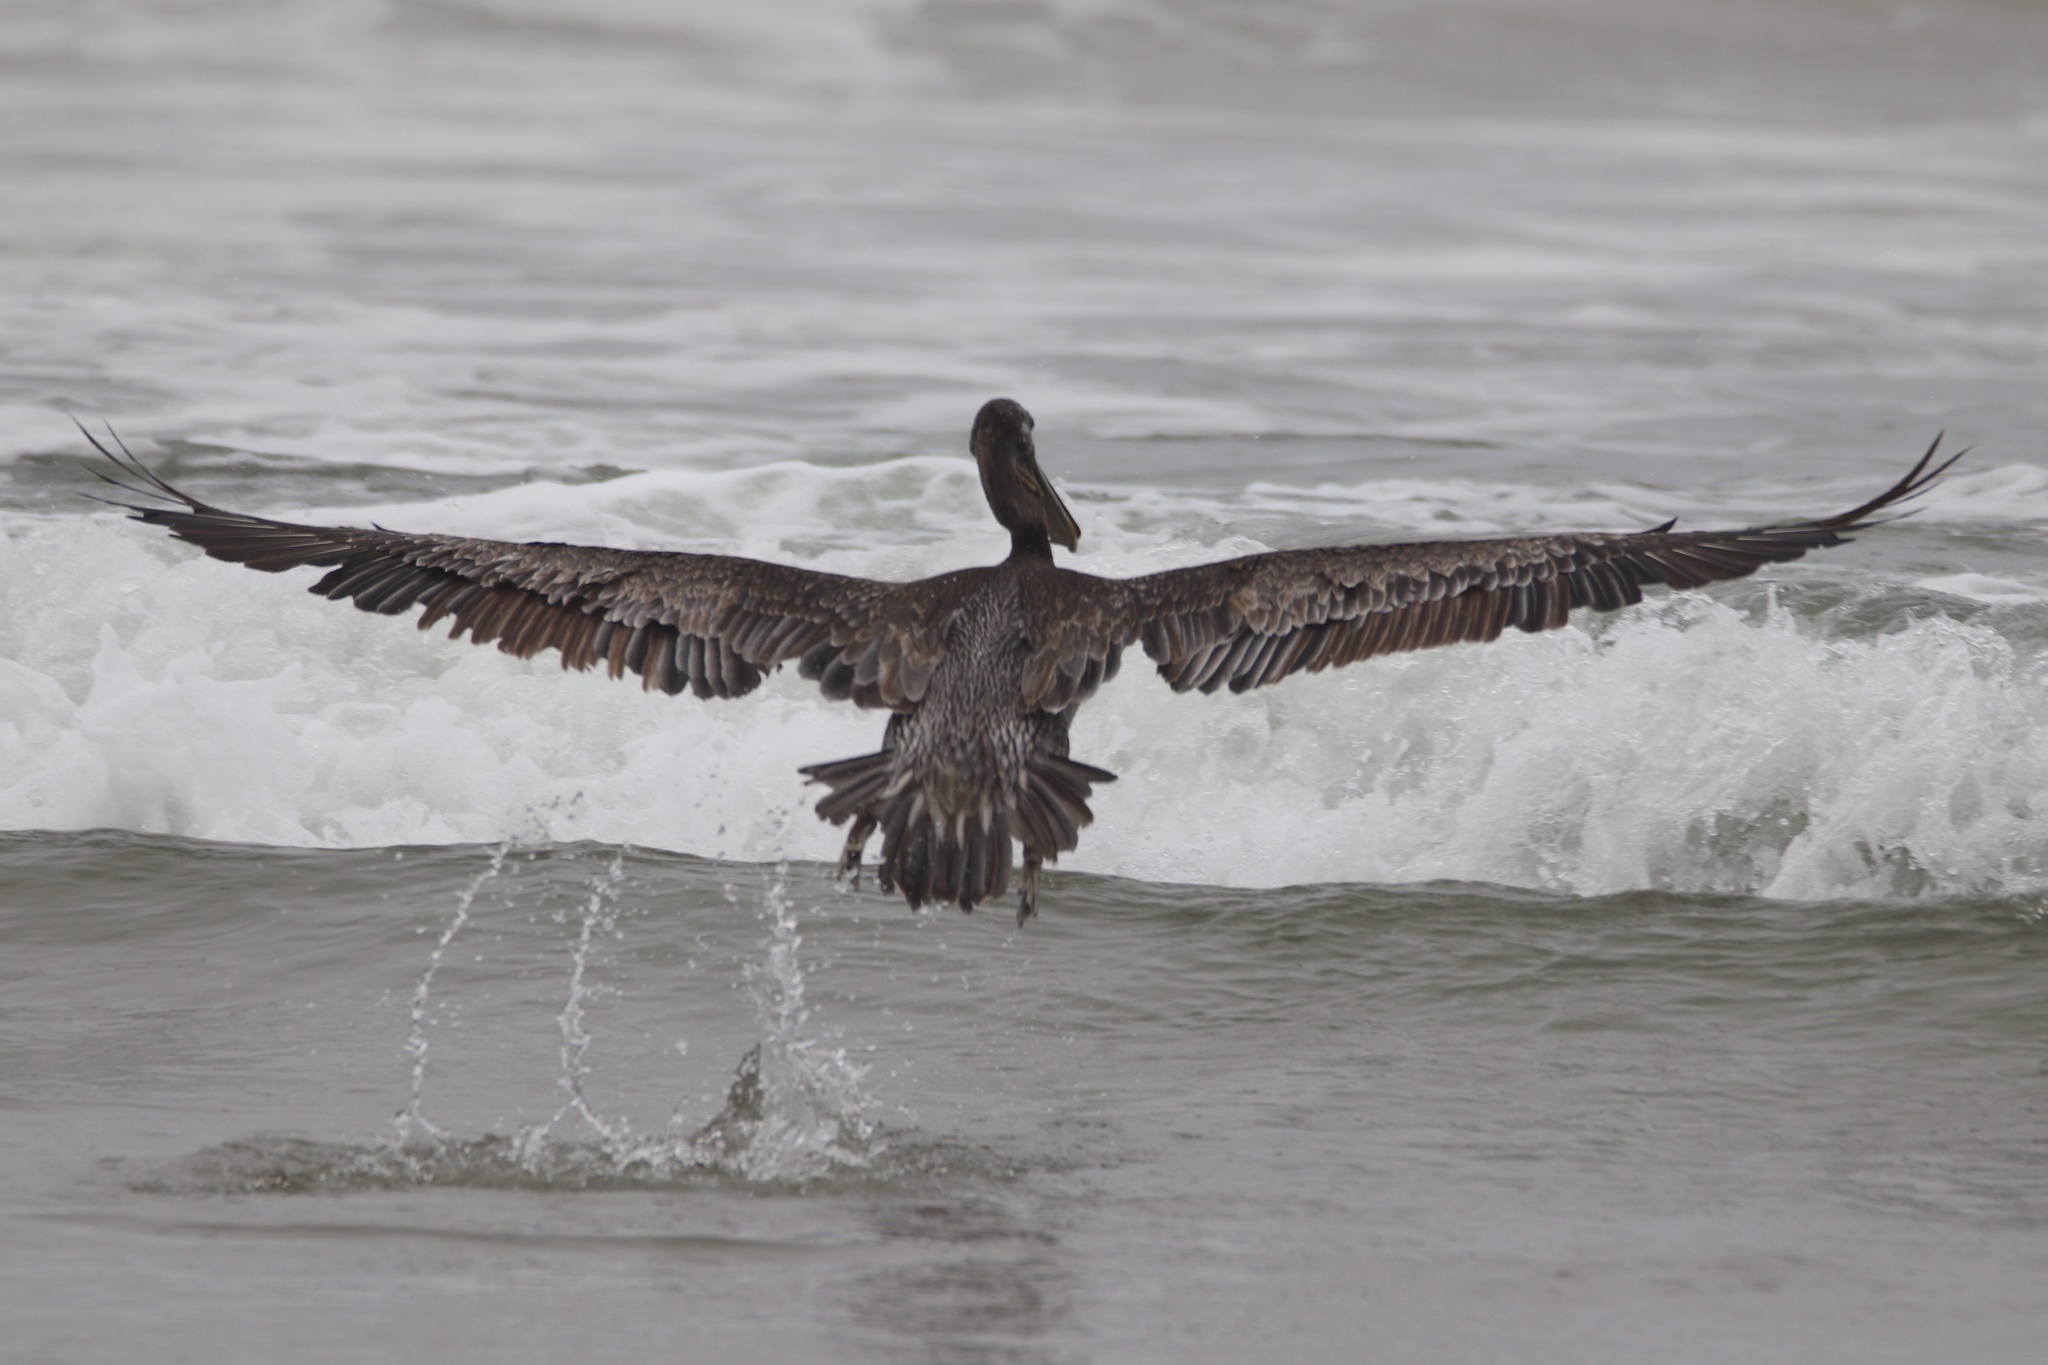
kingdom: Animalia
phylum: Chordata
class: Aves
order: Pelecaniformes
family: Pelecanidae
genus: Pelecanus
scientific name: Pelecanus occidentalis
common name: Brown pelican
